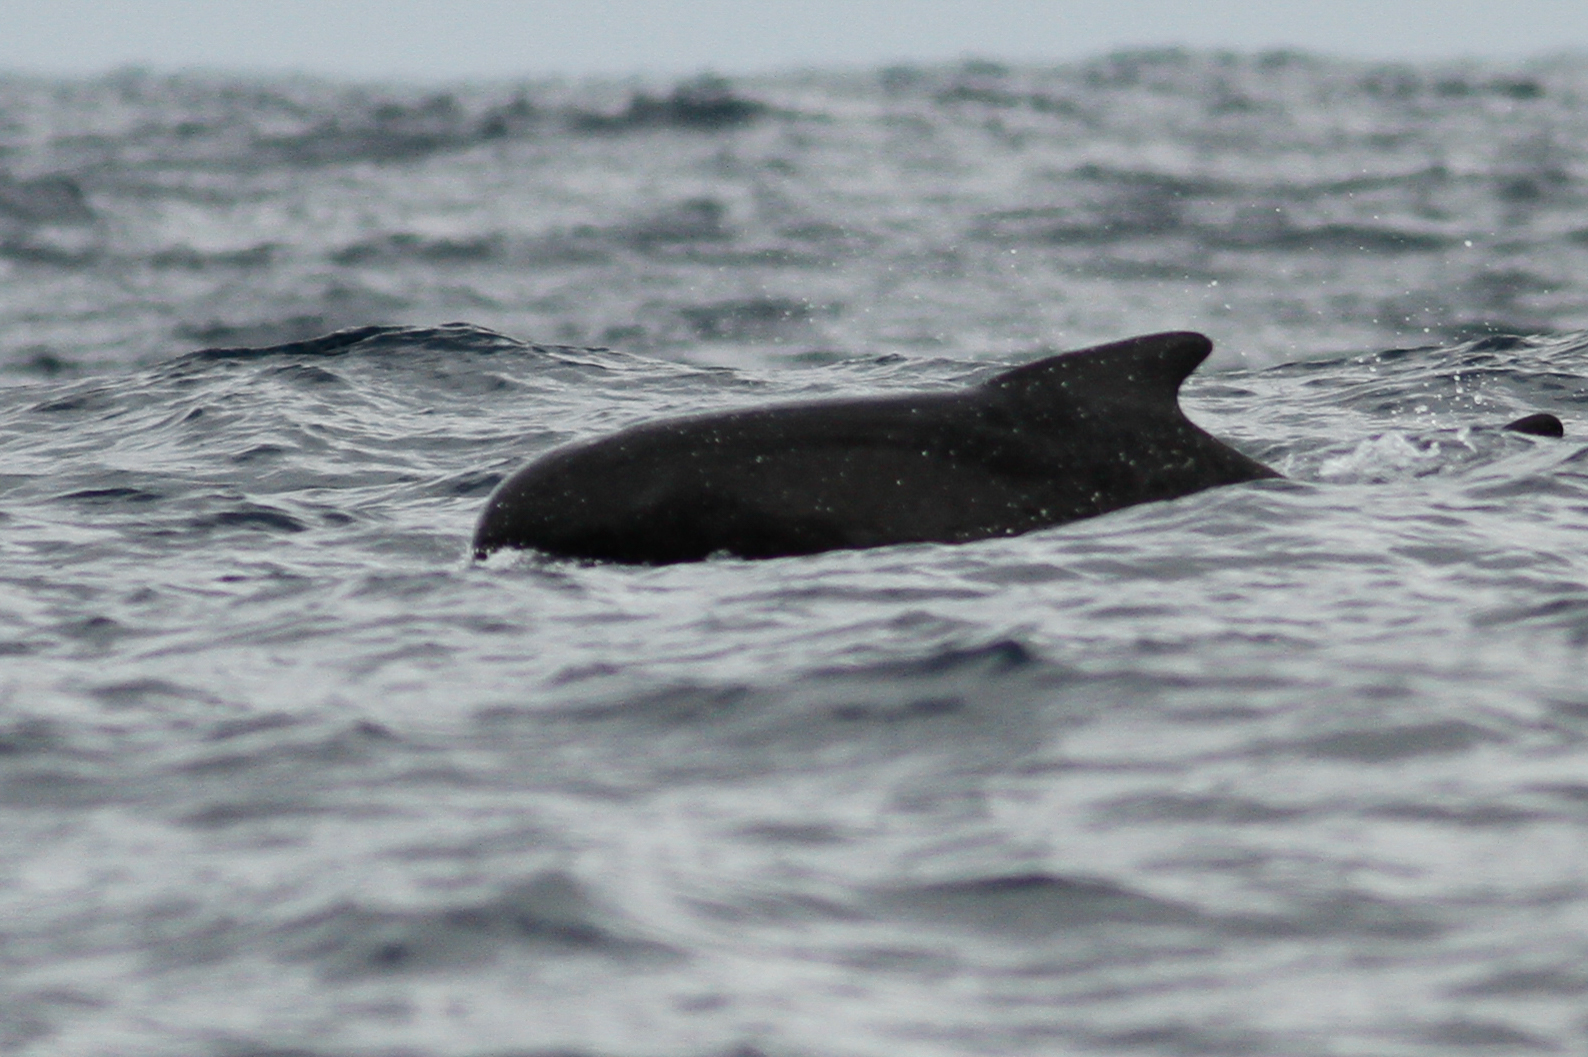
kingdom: Animalia
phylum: Chordata
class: Mammalia
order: Cetacea
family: Delphinidae
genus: Globicephala
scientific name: Globicephala melas
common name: Long-finned pilot whale
